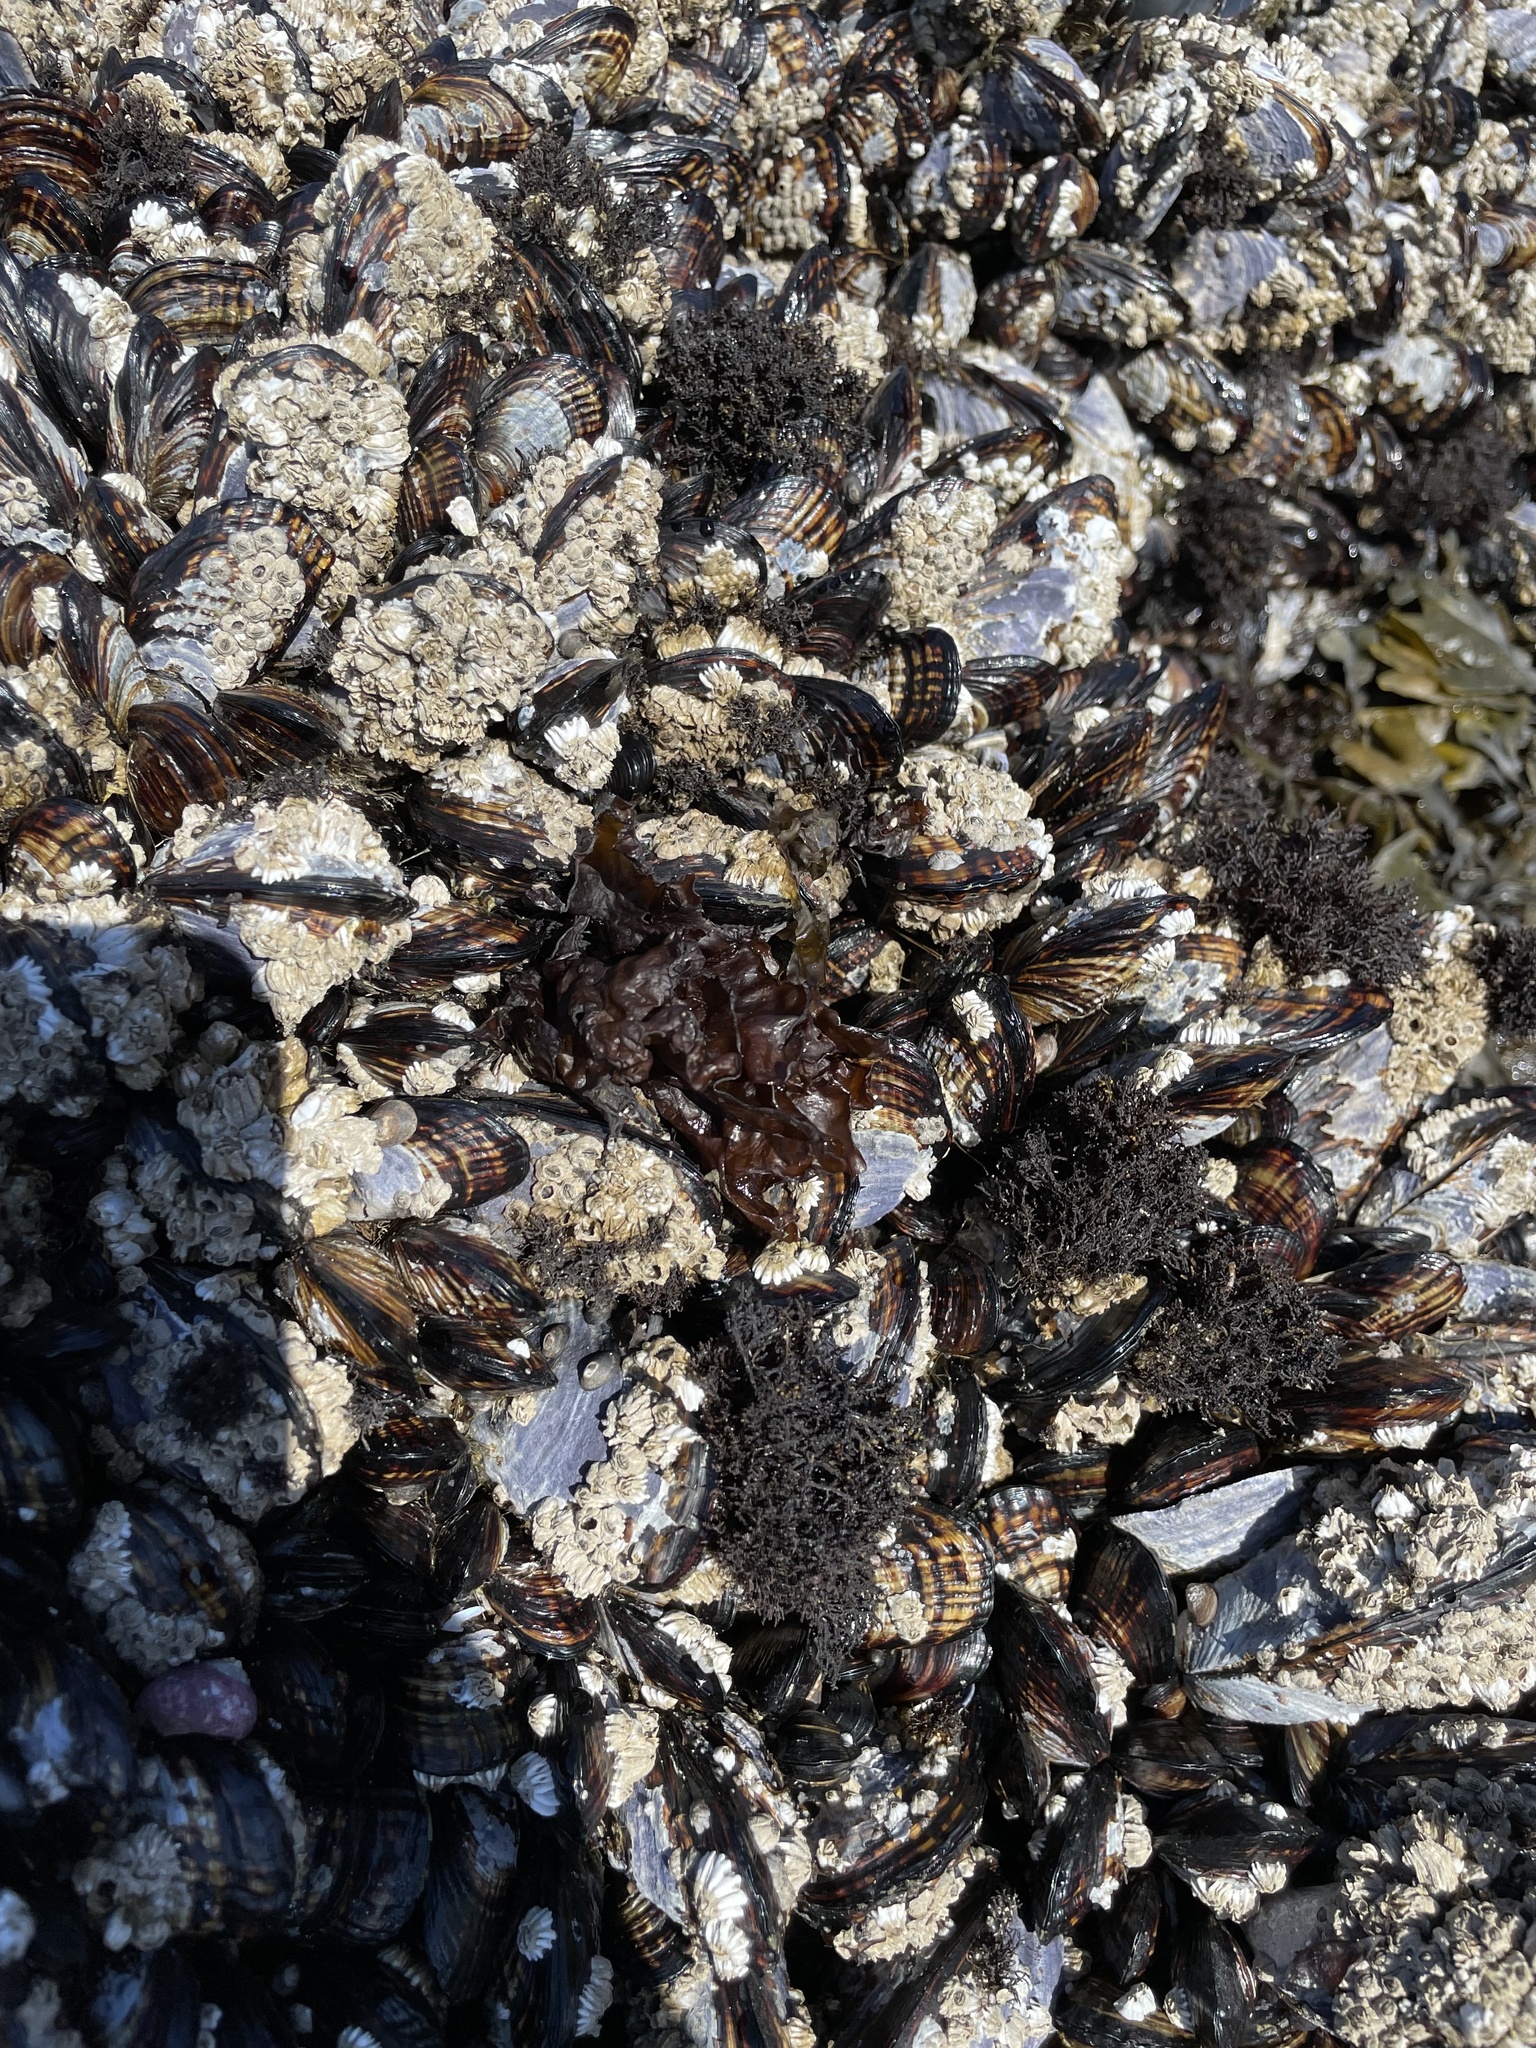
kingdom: Animalia
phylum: Mollusca
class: Bivalvia
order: Mytilida
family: Mytilidae
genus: Mytilus
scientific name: Mytilus californianus
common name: California mussel
